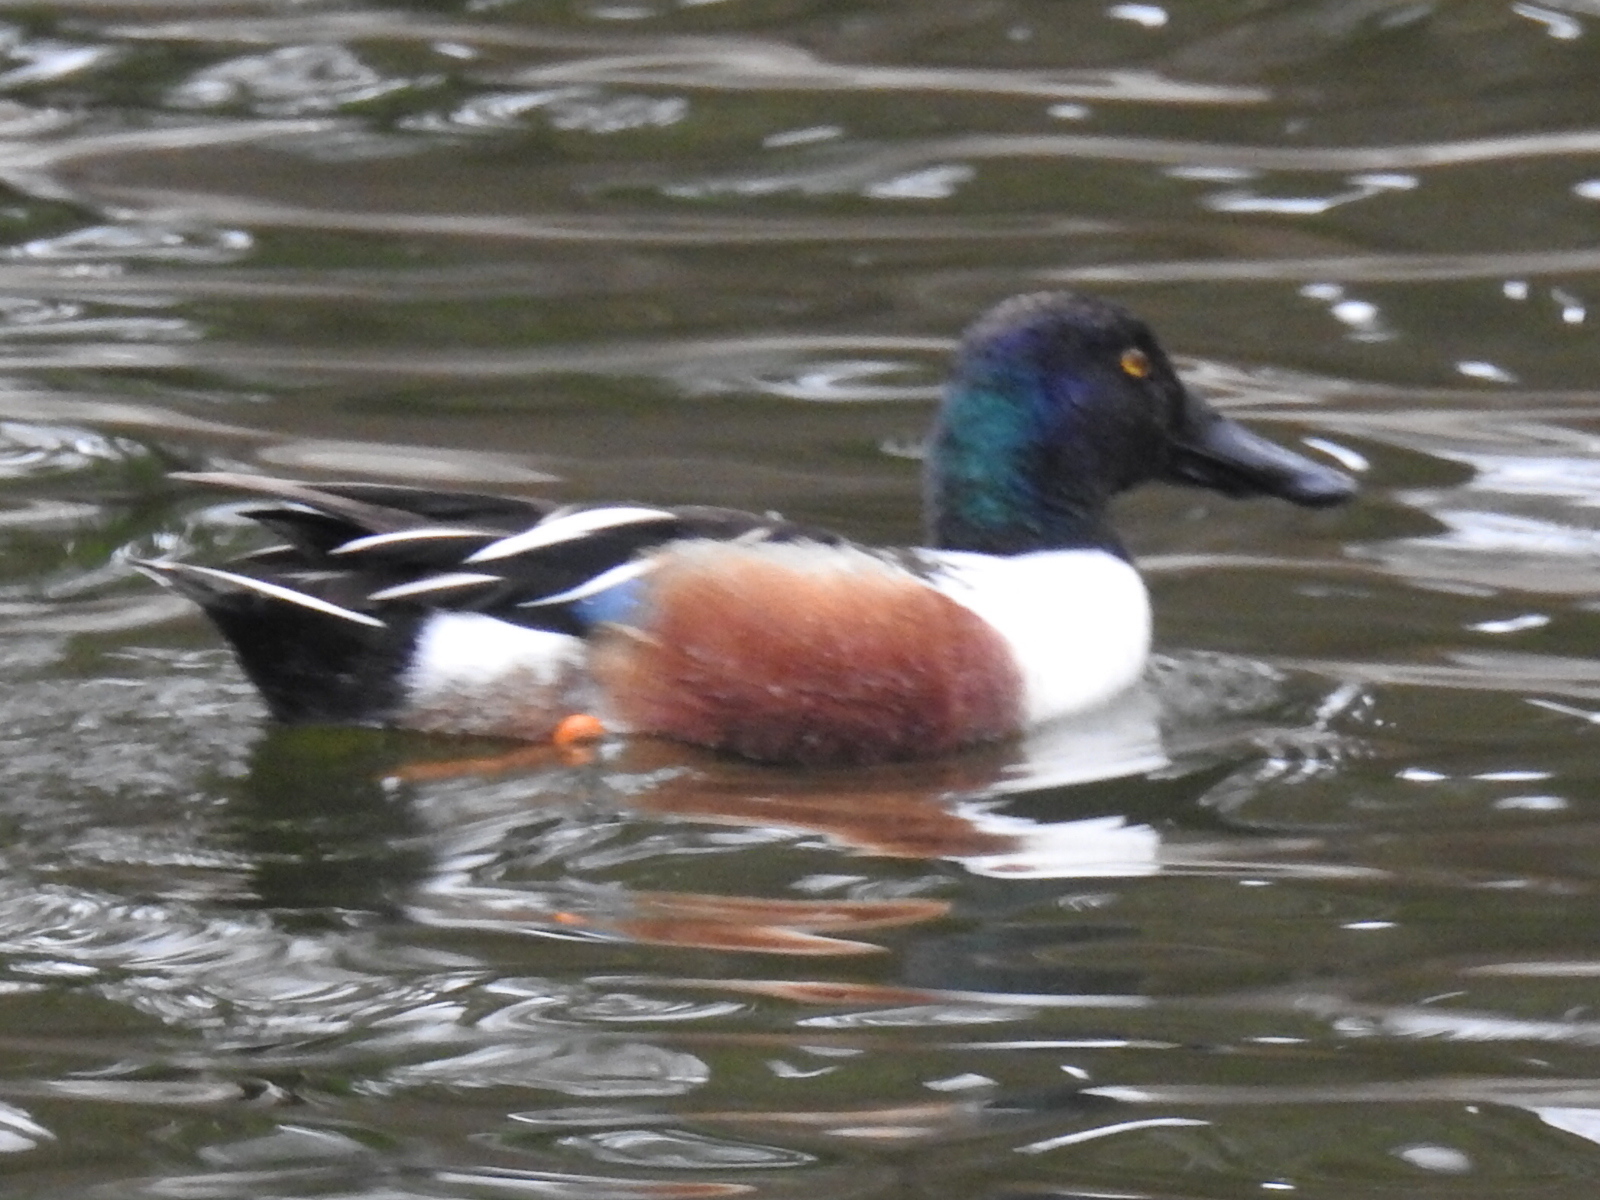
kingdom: Animalia
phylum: Chordata
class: Aves
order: Anseriformes
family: Anatidae
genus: Spatula
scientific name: Spatula clypeata
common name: Northern shoveler
